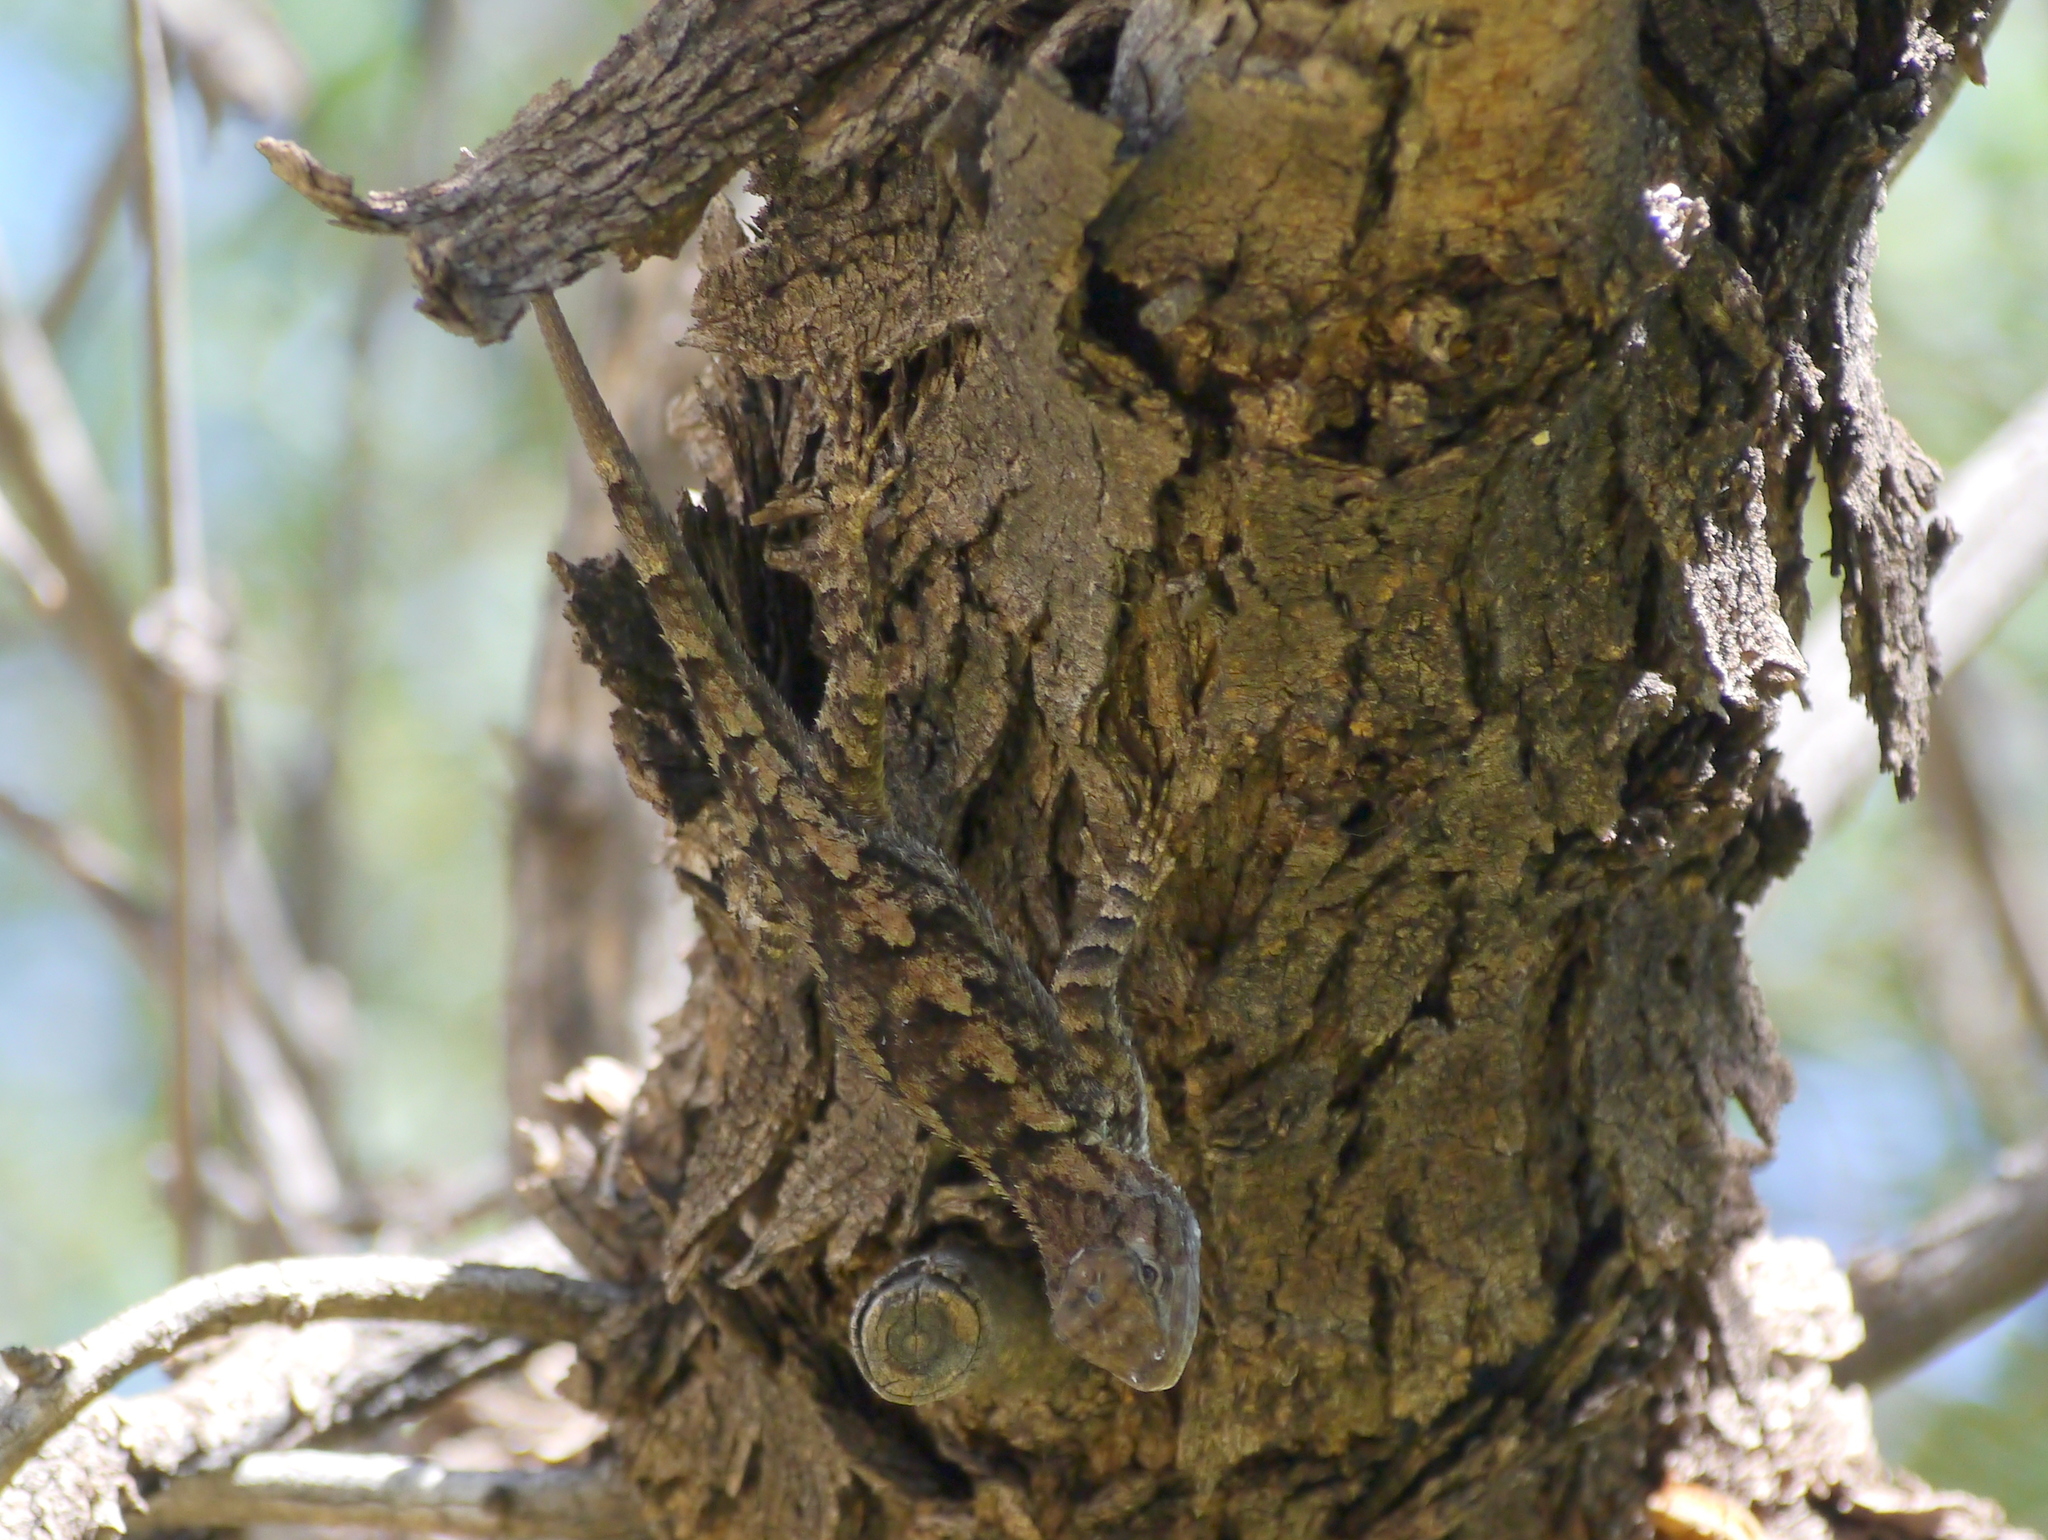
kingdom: Animalia
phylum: Chordata
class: Squamata
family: Phrynosomatidae
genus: Sceloporus
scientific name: Sceloporus clarkii
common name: Clark's spiny lizard
